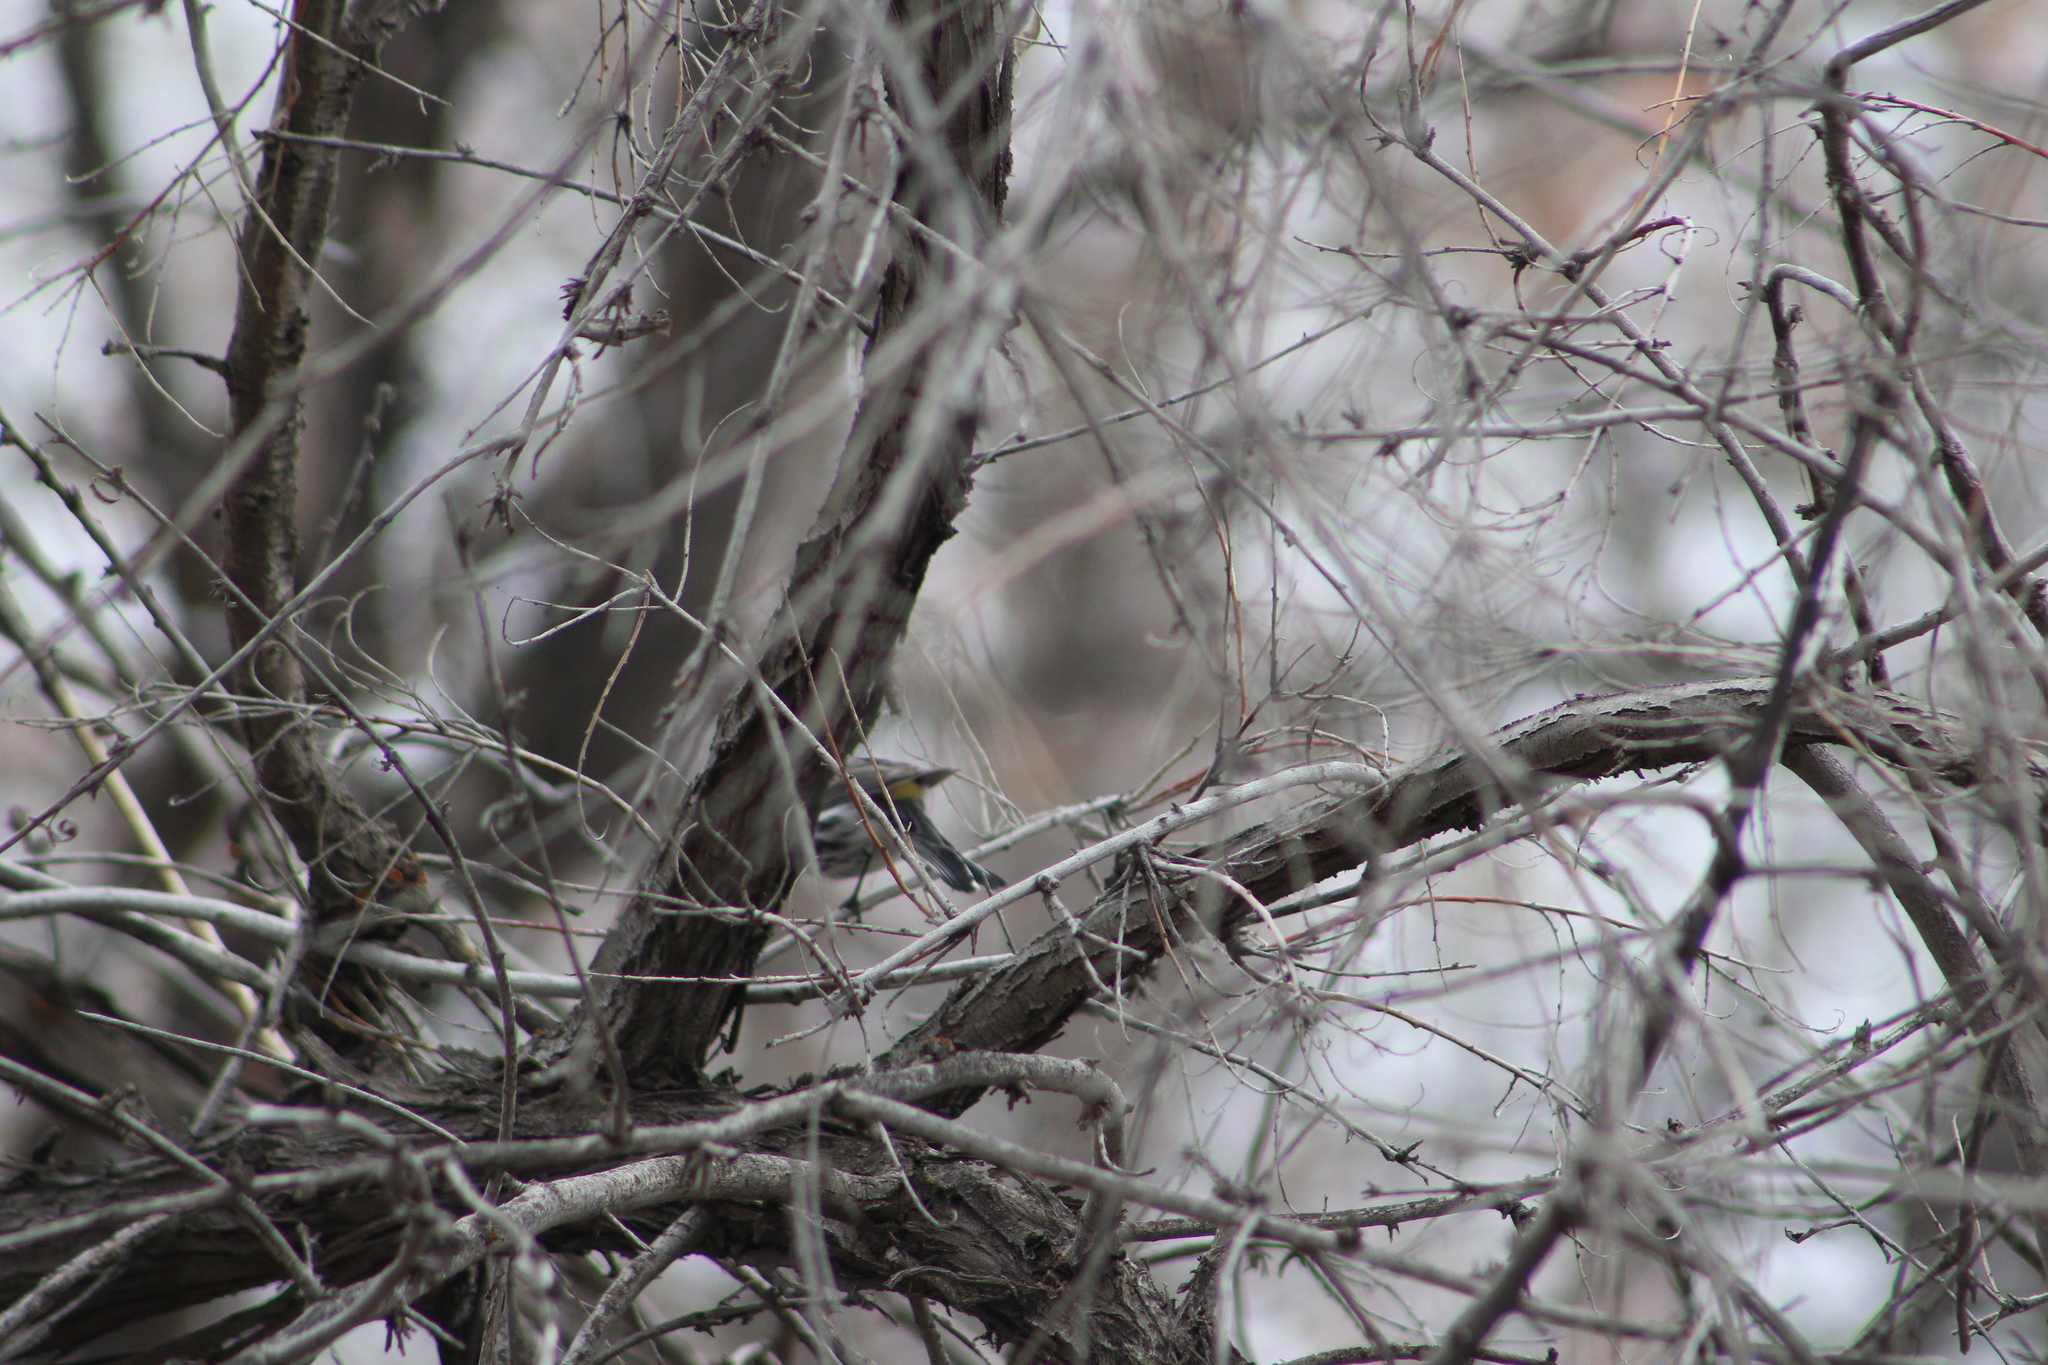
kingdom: Animalia
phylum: Chordata
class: Aves
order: Passeriformes
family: Parulidae
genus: Setophaga
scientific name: Setophaga coronata
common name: Myrtle warbler
